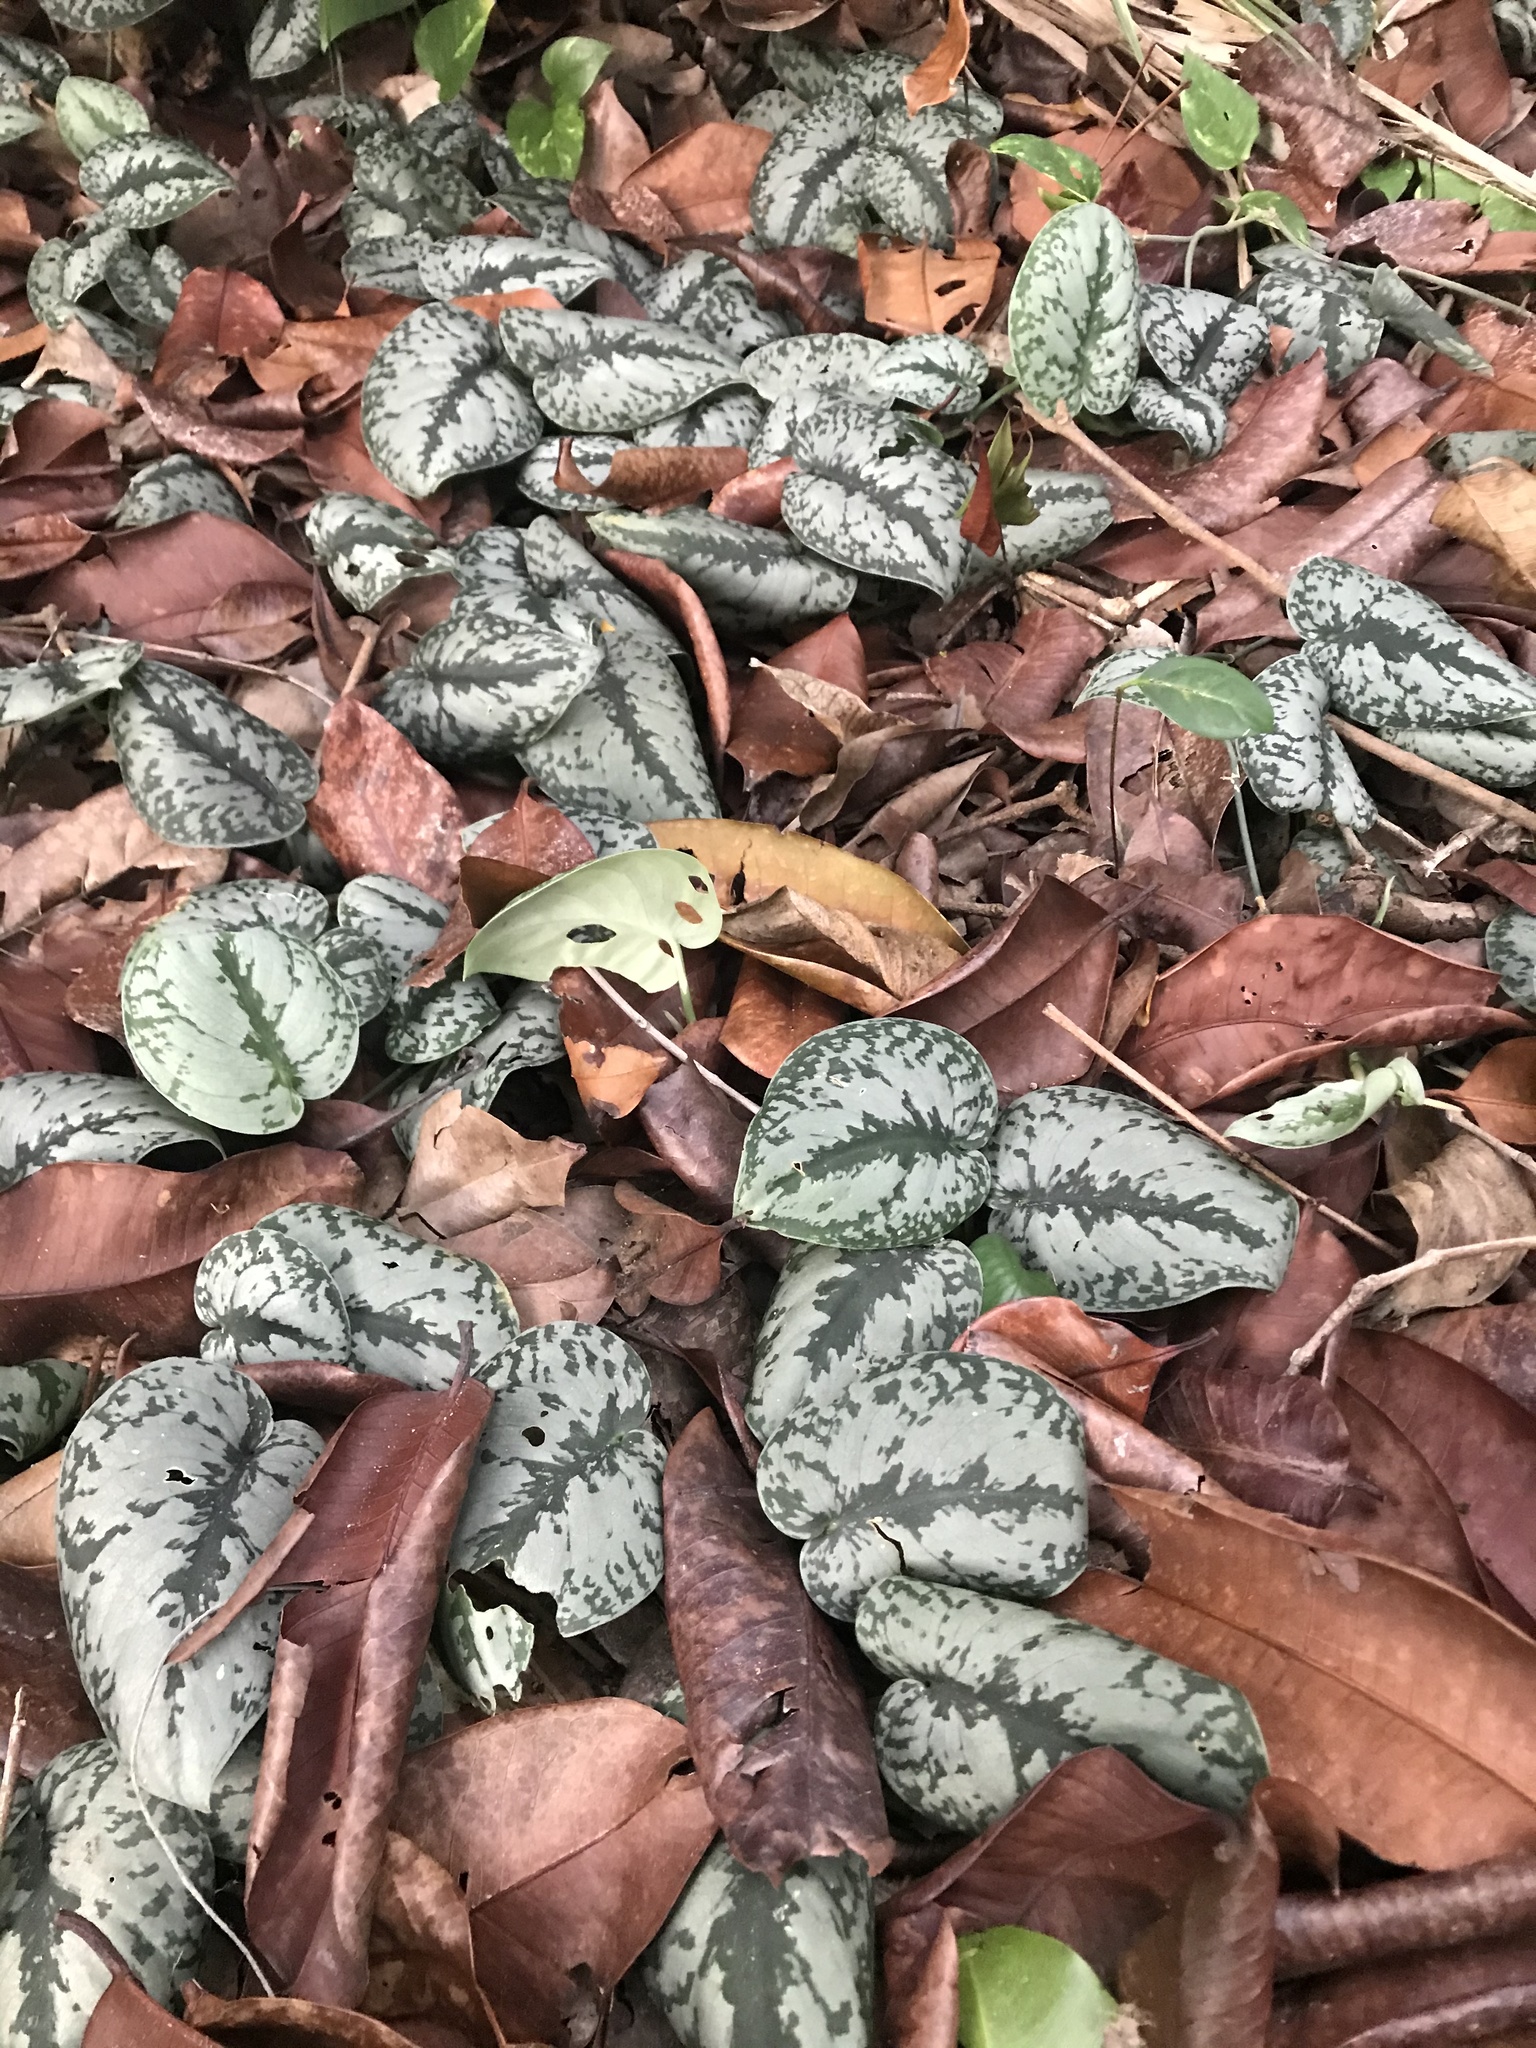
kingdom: Plantae
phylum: Tracheophyta
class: Liliopsida
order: Alismatales
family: Araceae
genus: Scindapsus
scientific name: Scindapsus pictus
